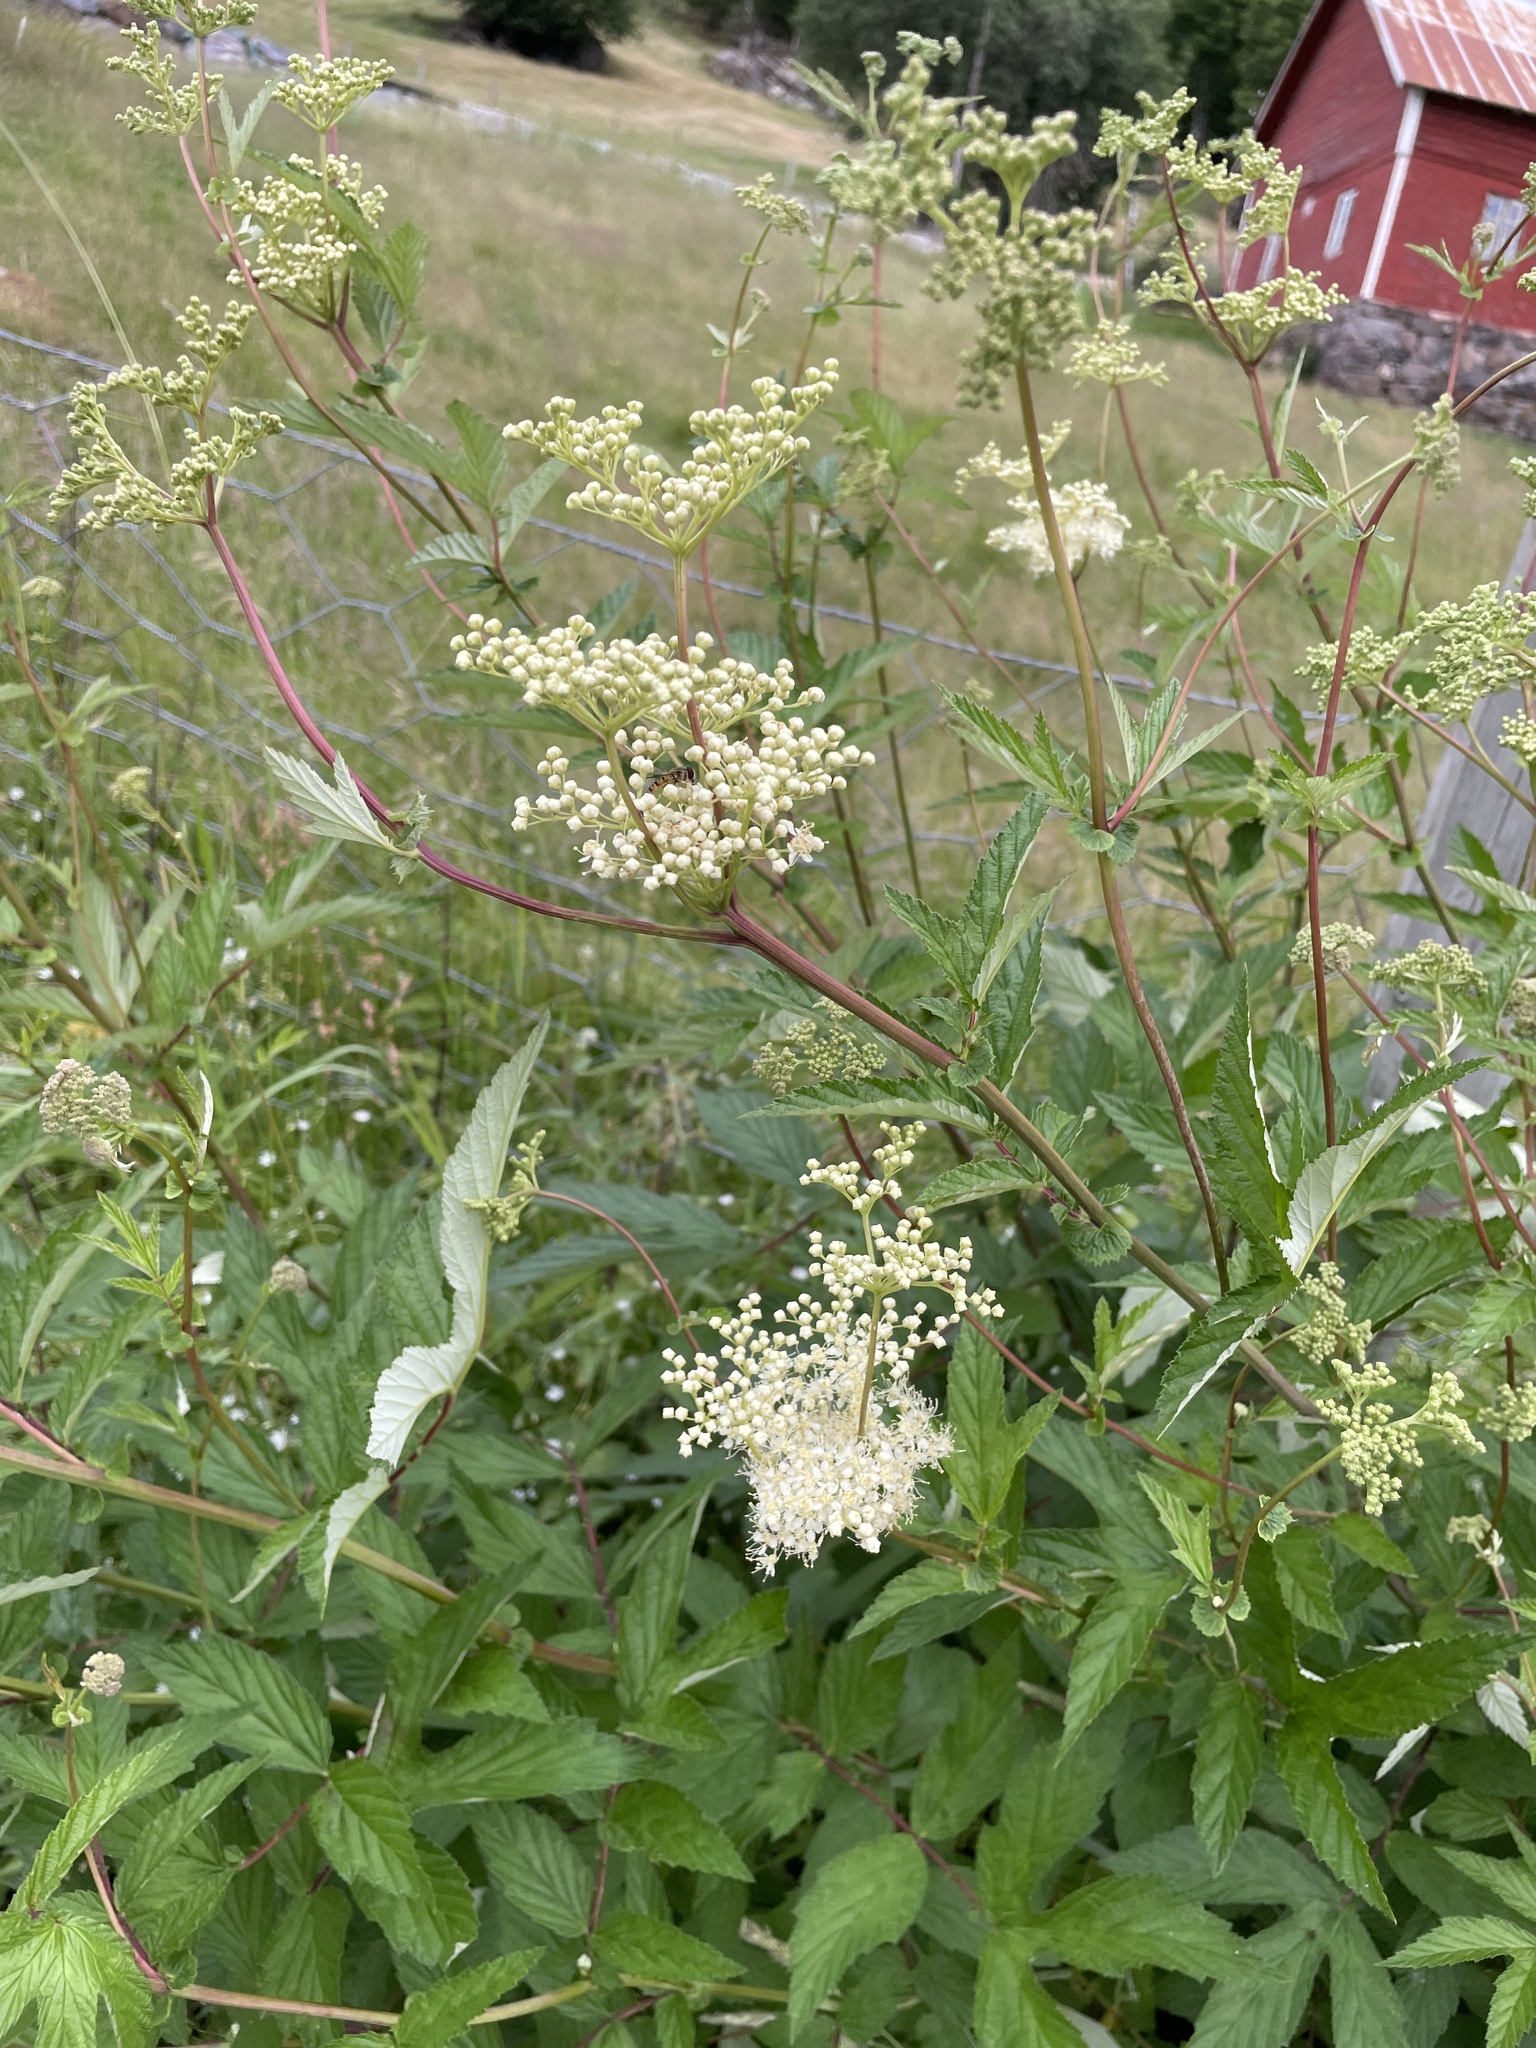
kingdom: Plantae
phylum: Tracheophyta
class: Magnoliopsida
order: Rosales
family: Rosaceae
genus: Filipendula
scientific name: Filipendula ulmaria
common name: Meadowsweet
